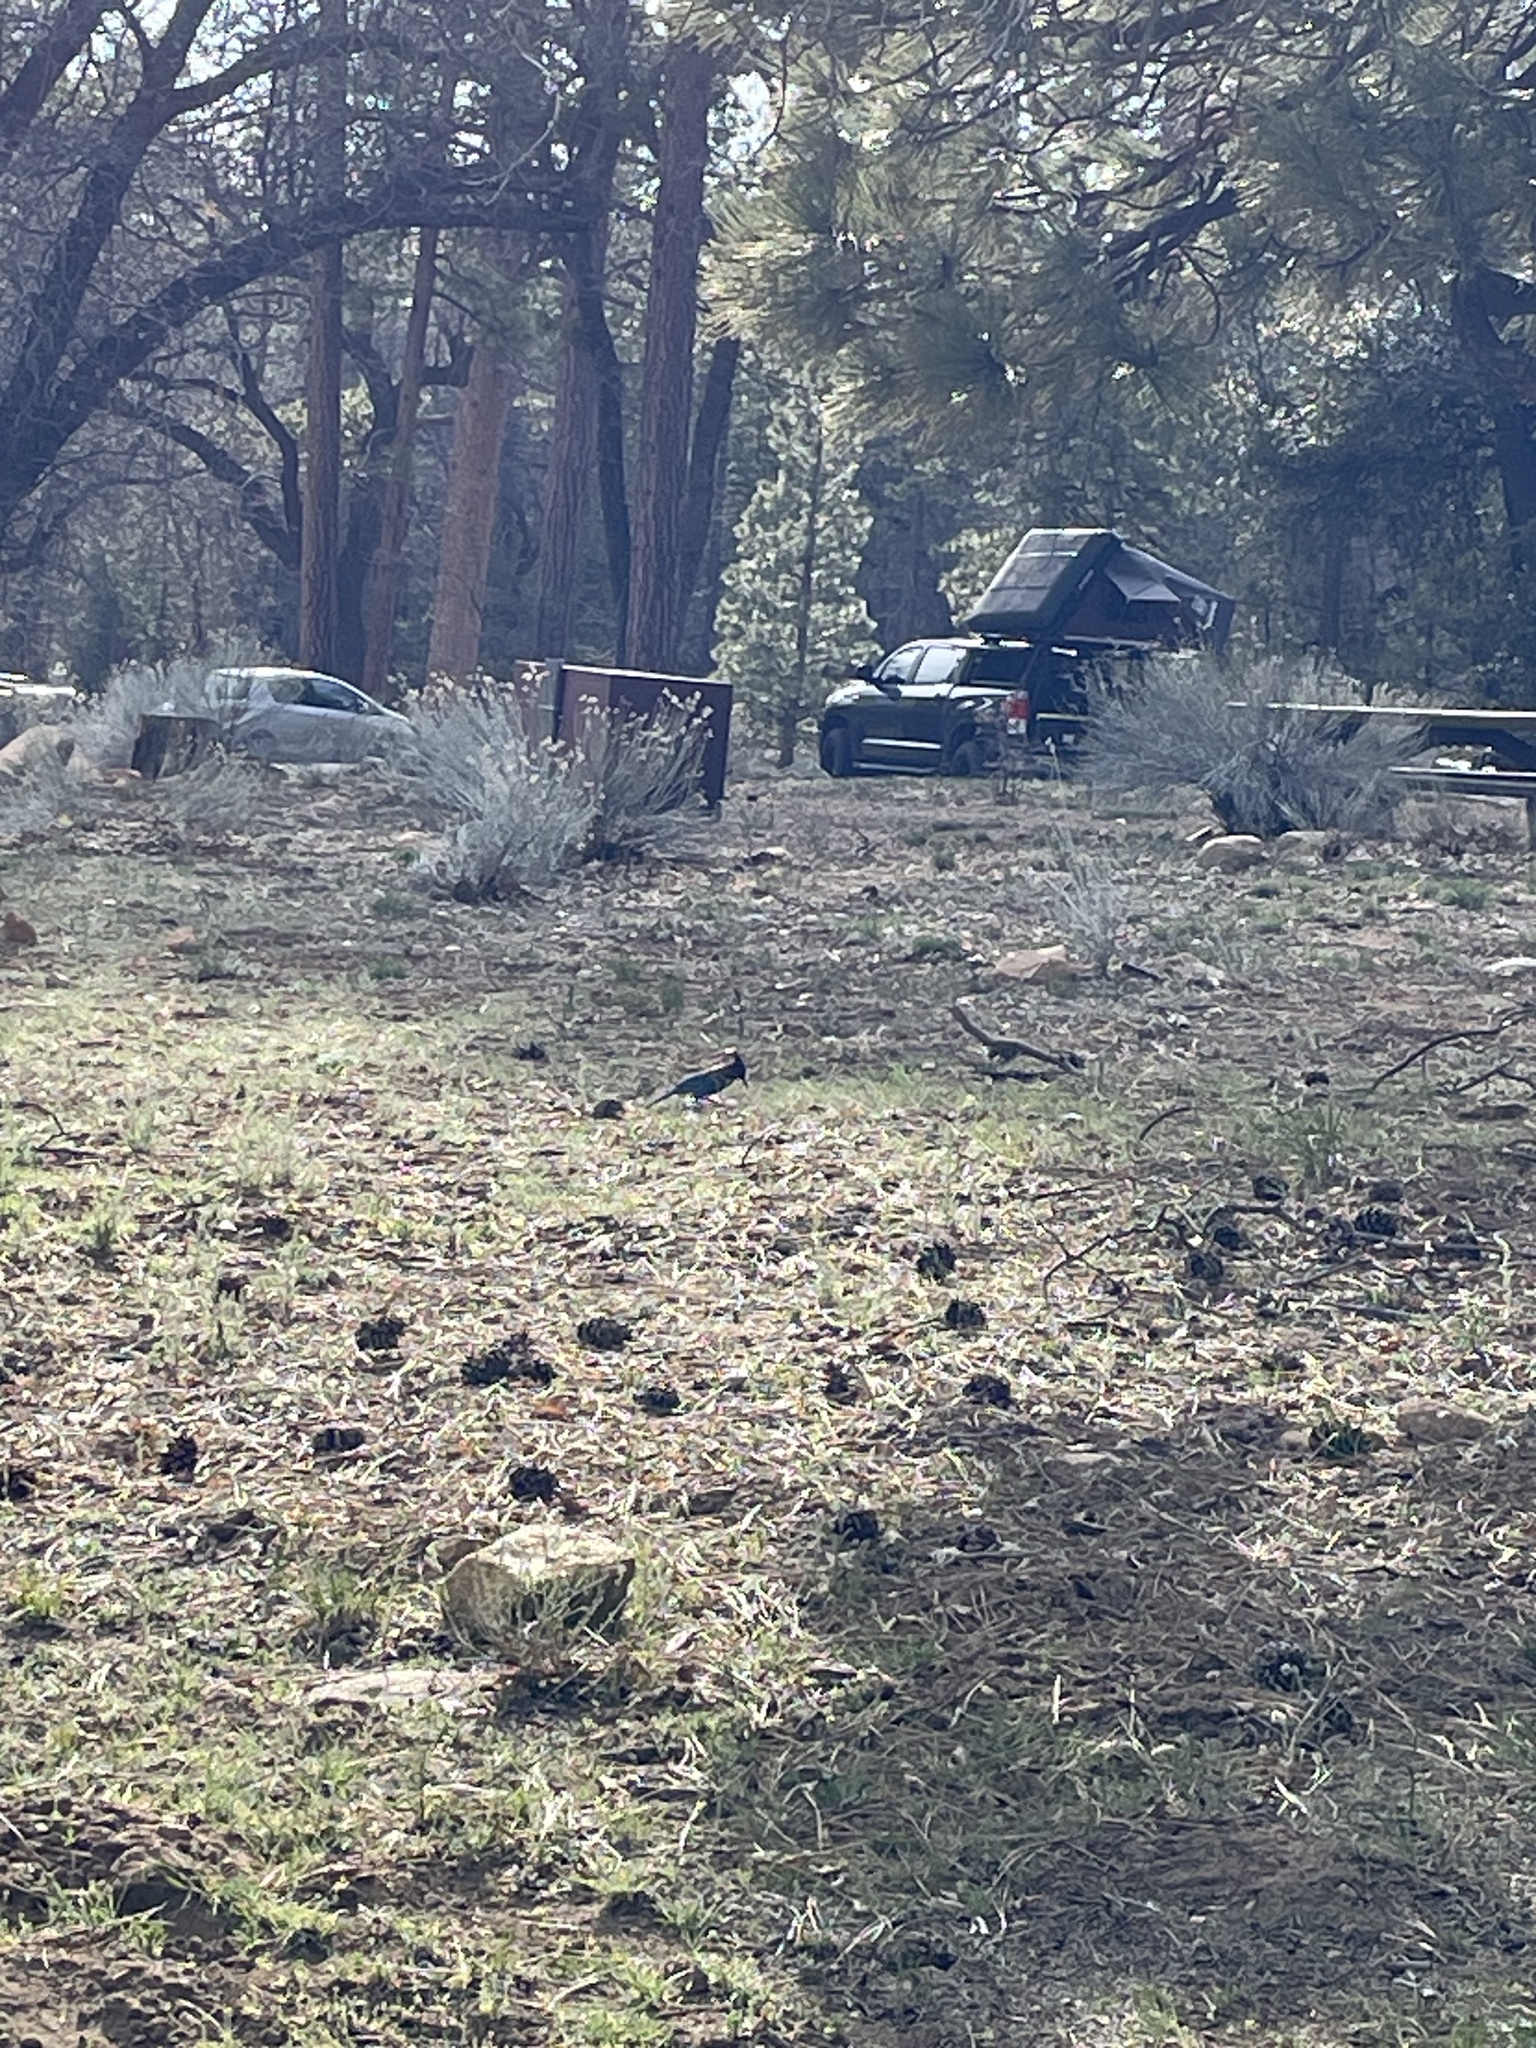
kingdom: Animalia
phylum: Chordata
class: Aves
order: Passeriformes
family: Corvidae
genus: Cyanocitta
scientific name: Cyanocitta stelleri
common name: Steller's jay
